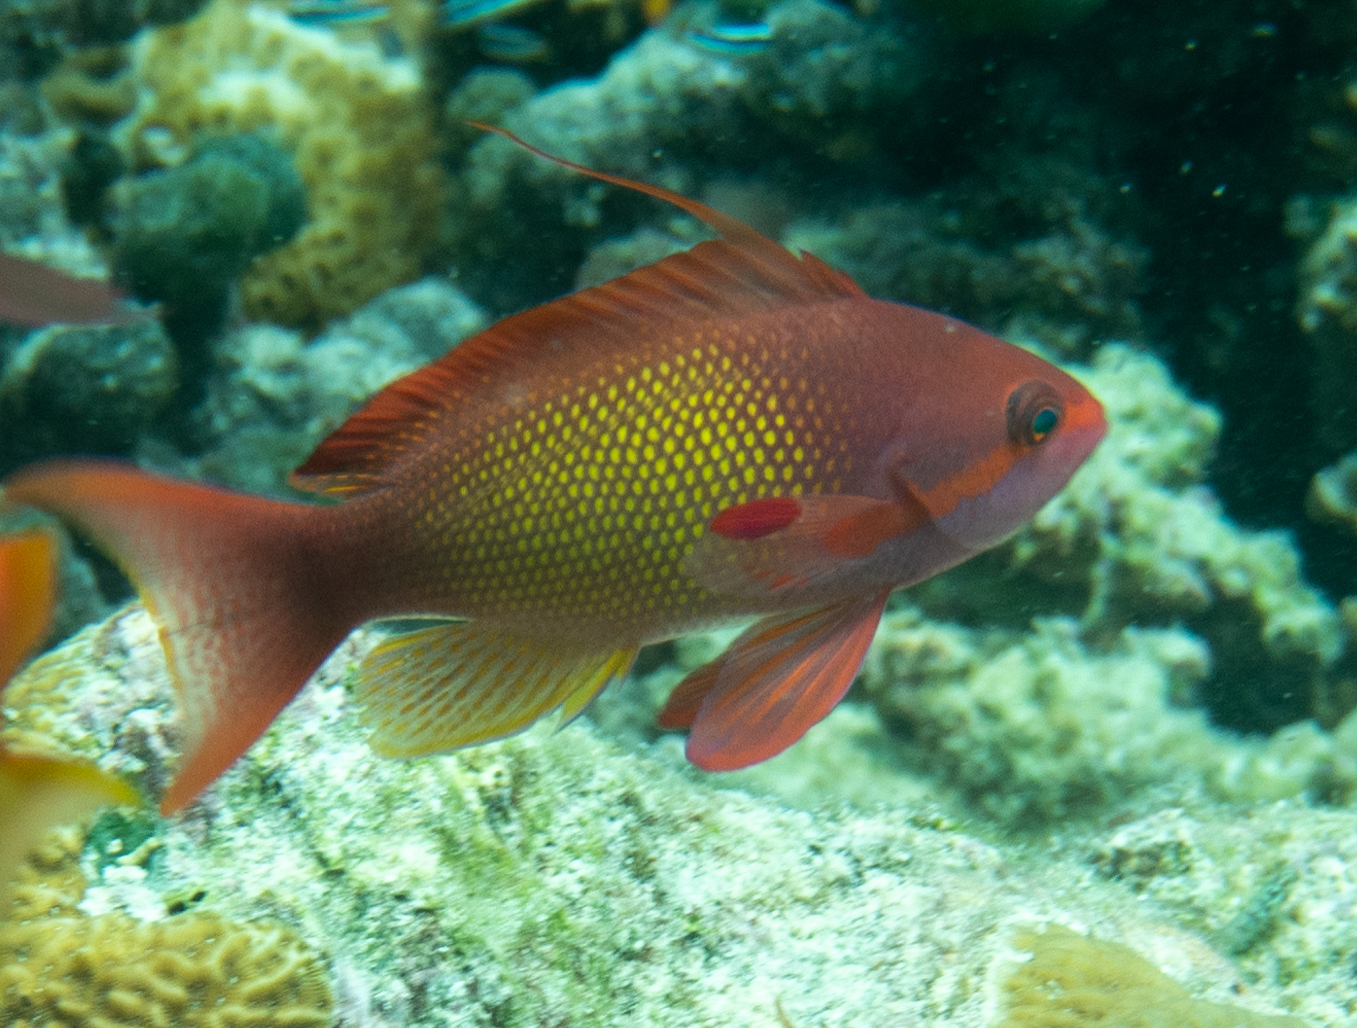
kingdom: Animalia
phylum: Chordata
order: Perciformes
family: Serranidae
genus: Pseudanthias
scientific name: Pseudanthias squamipinnis
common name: Scalefin anthias
